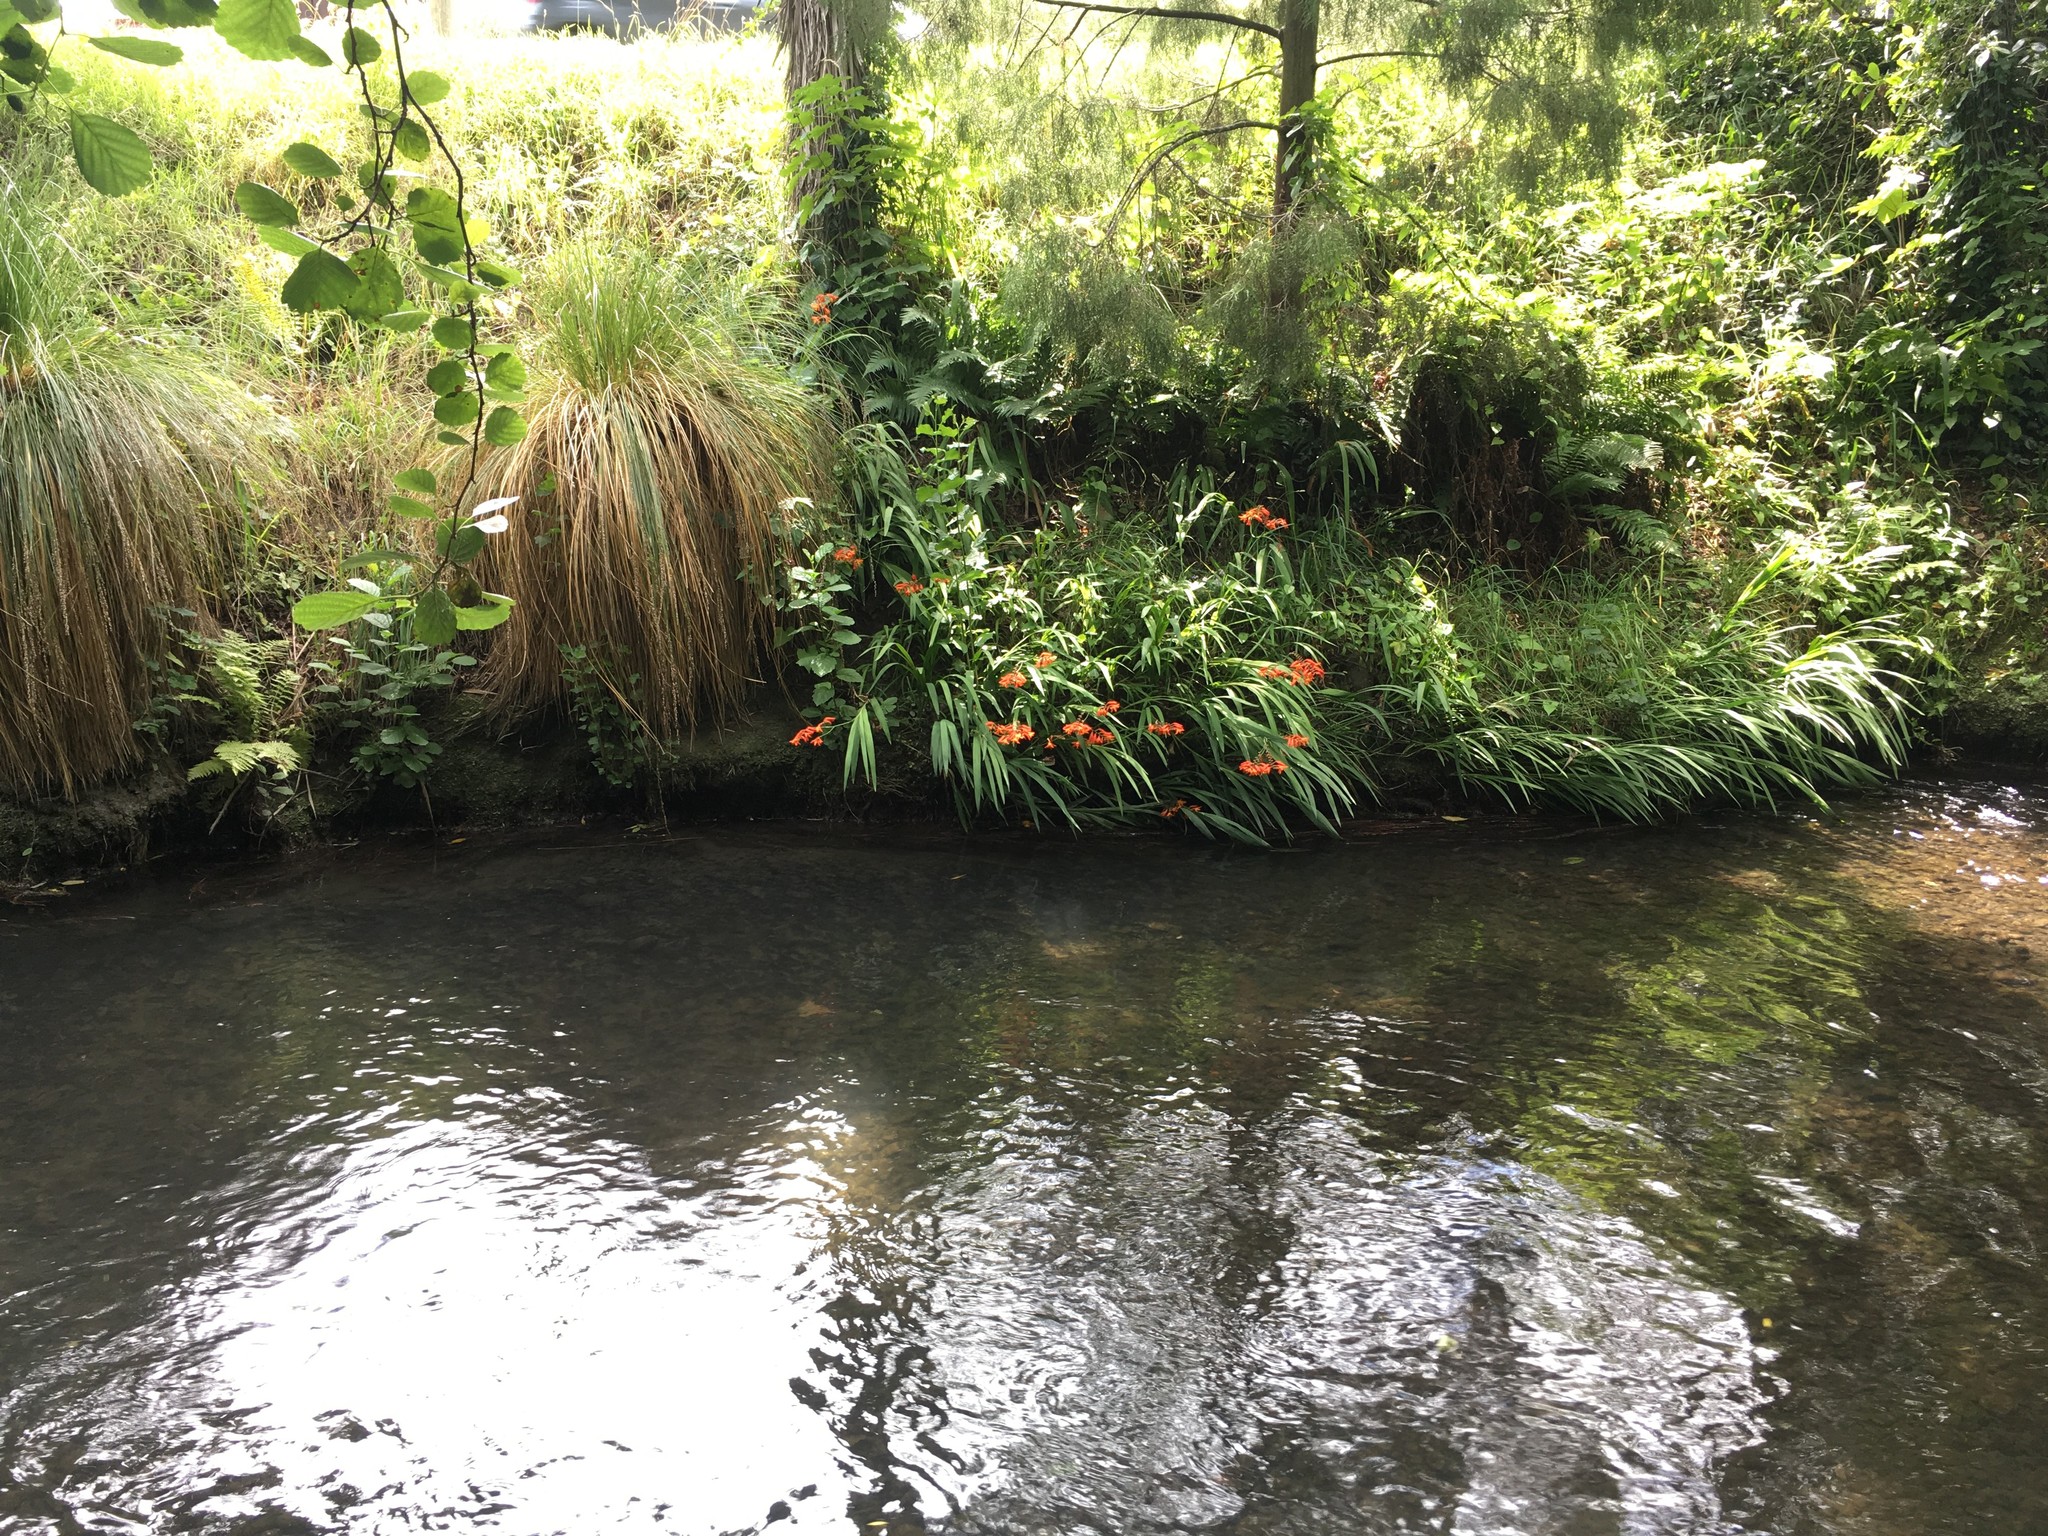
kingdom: Plantae
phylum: Tracheophyta
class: Liliopsida
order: Asparagales
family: Iridaceae
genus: Crocosmia
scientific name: Crocosmia crocosmiiflora
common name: Montbretia
